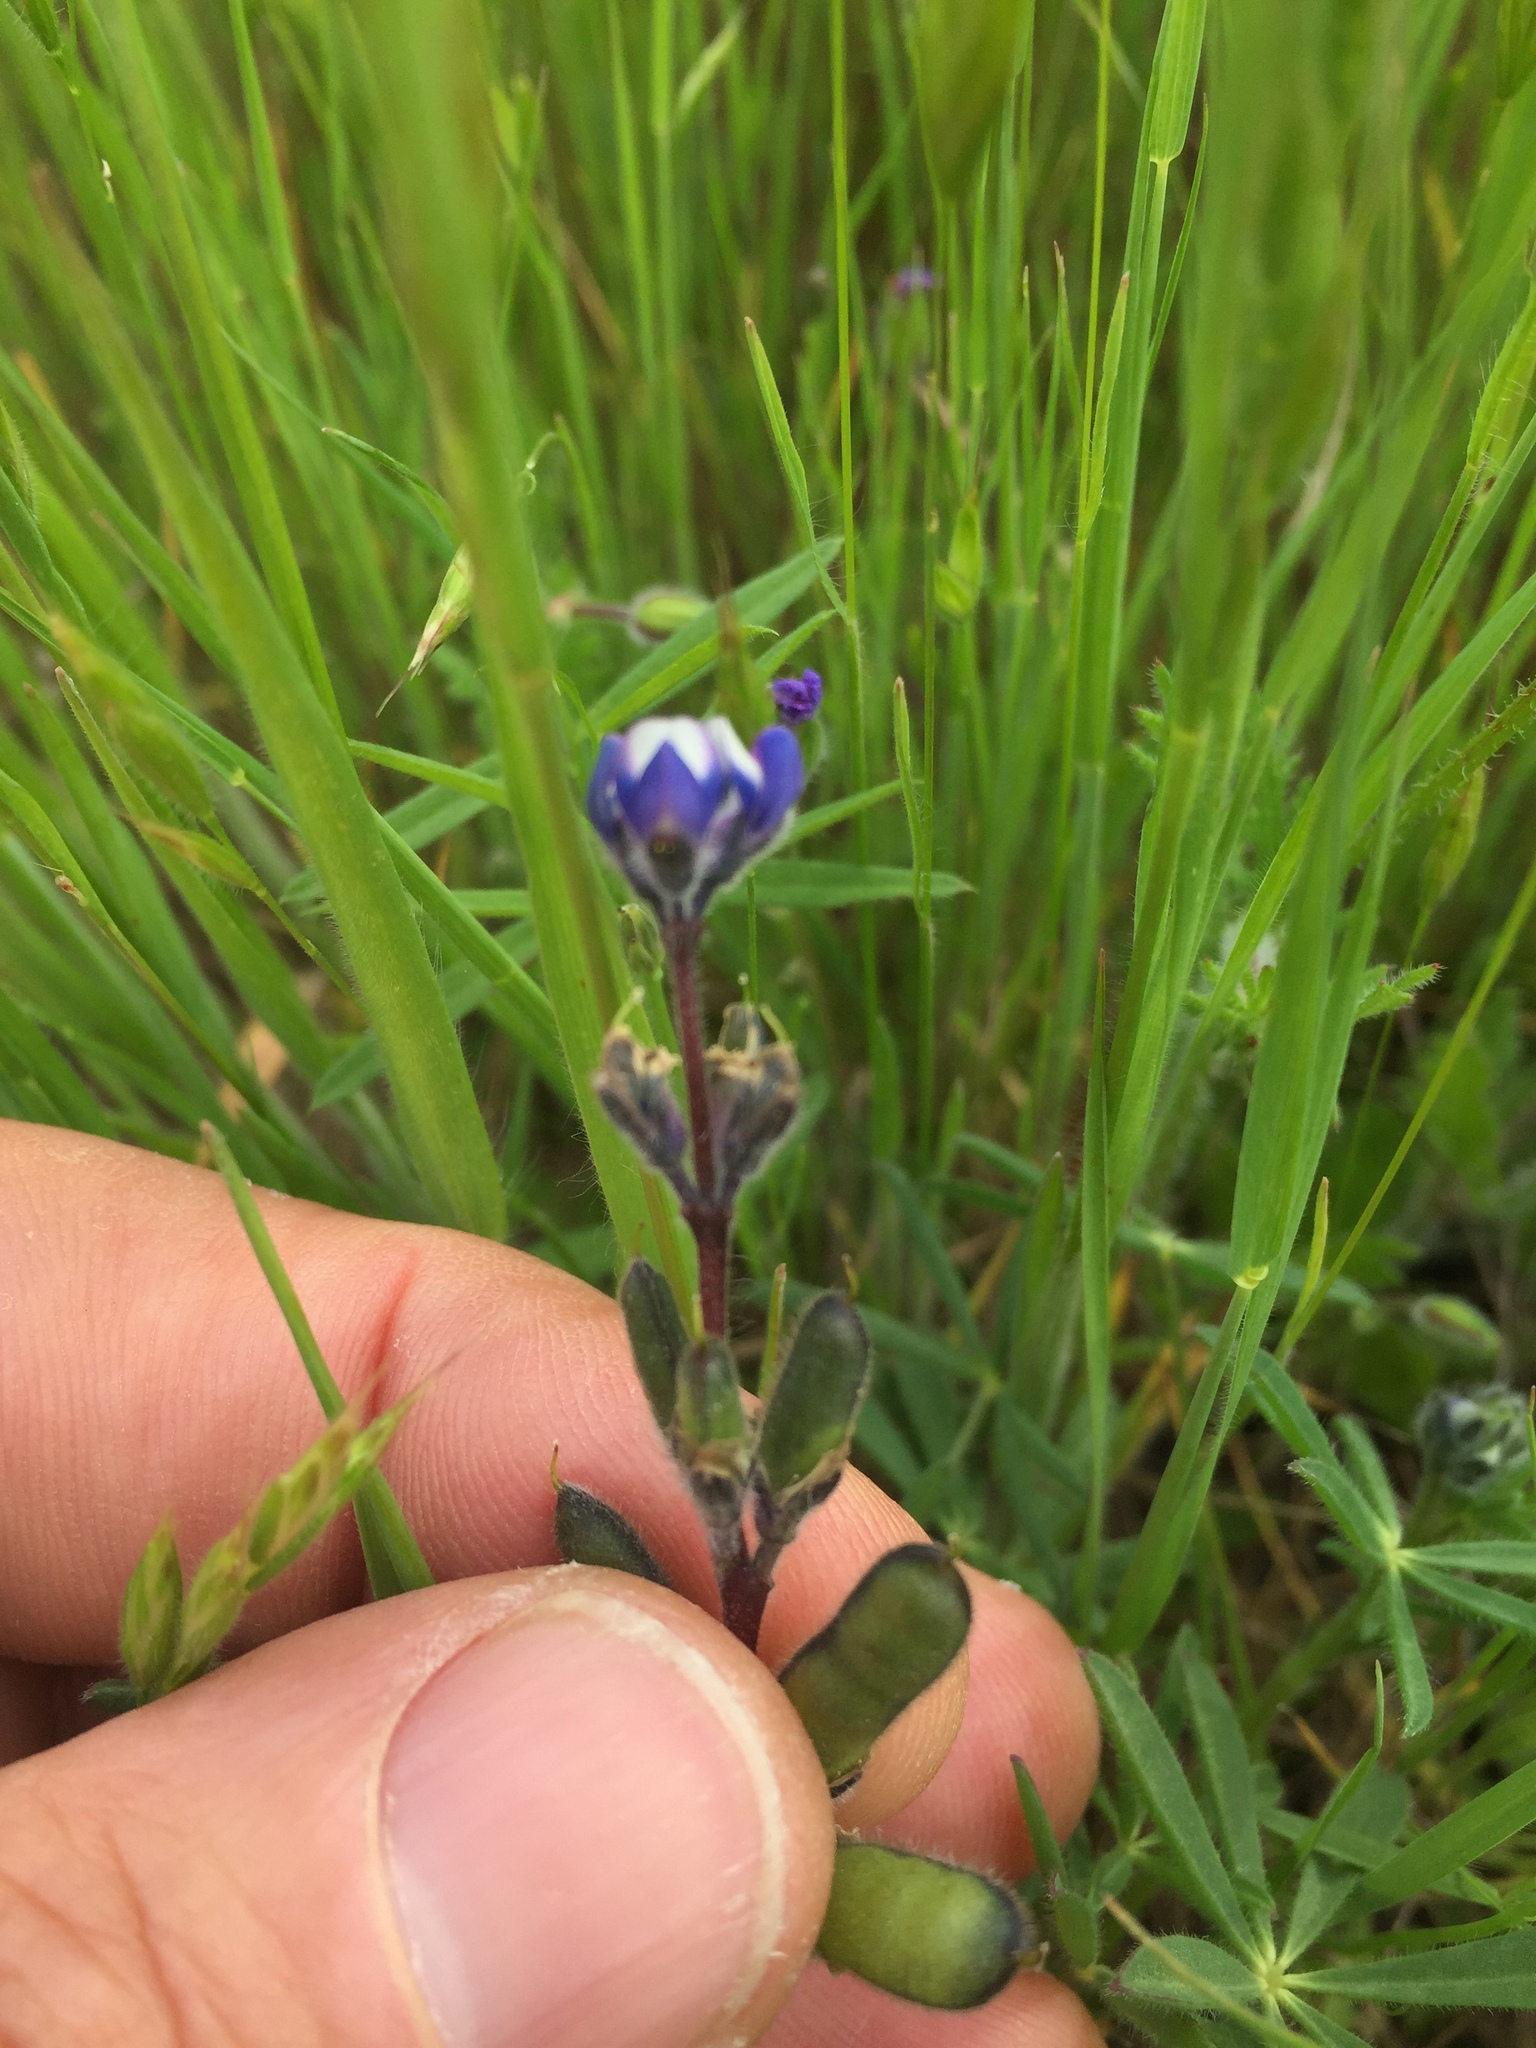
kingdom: Plantae
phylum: Tracheophyta
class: Magnoliopsida
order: Fabales
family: Fabaceae
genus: Lupinus
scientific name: Lupinus bicolor
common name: Miniature lupine
